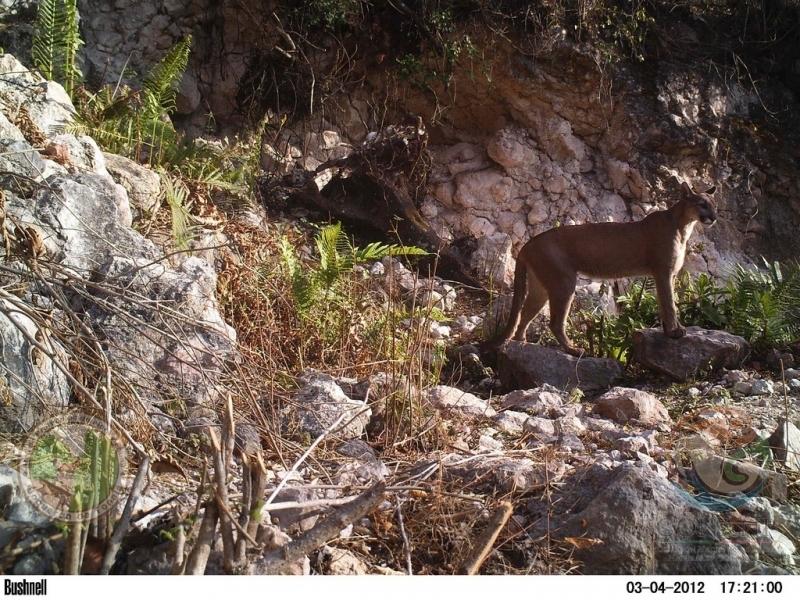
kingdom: Animalia
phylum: Chordata
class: Mammalia
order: Carnivora
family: Felidae
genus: Puma
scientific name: Puma concolor
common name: Puma
